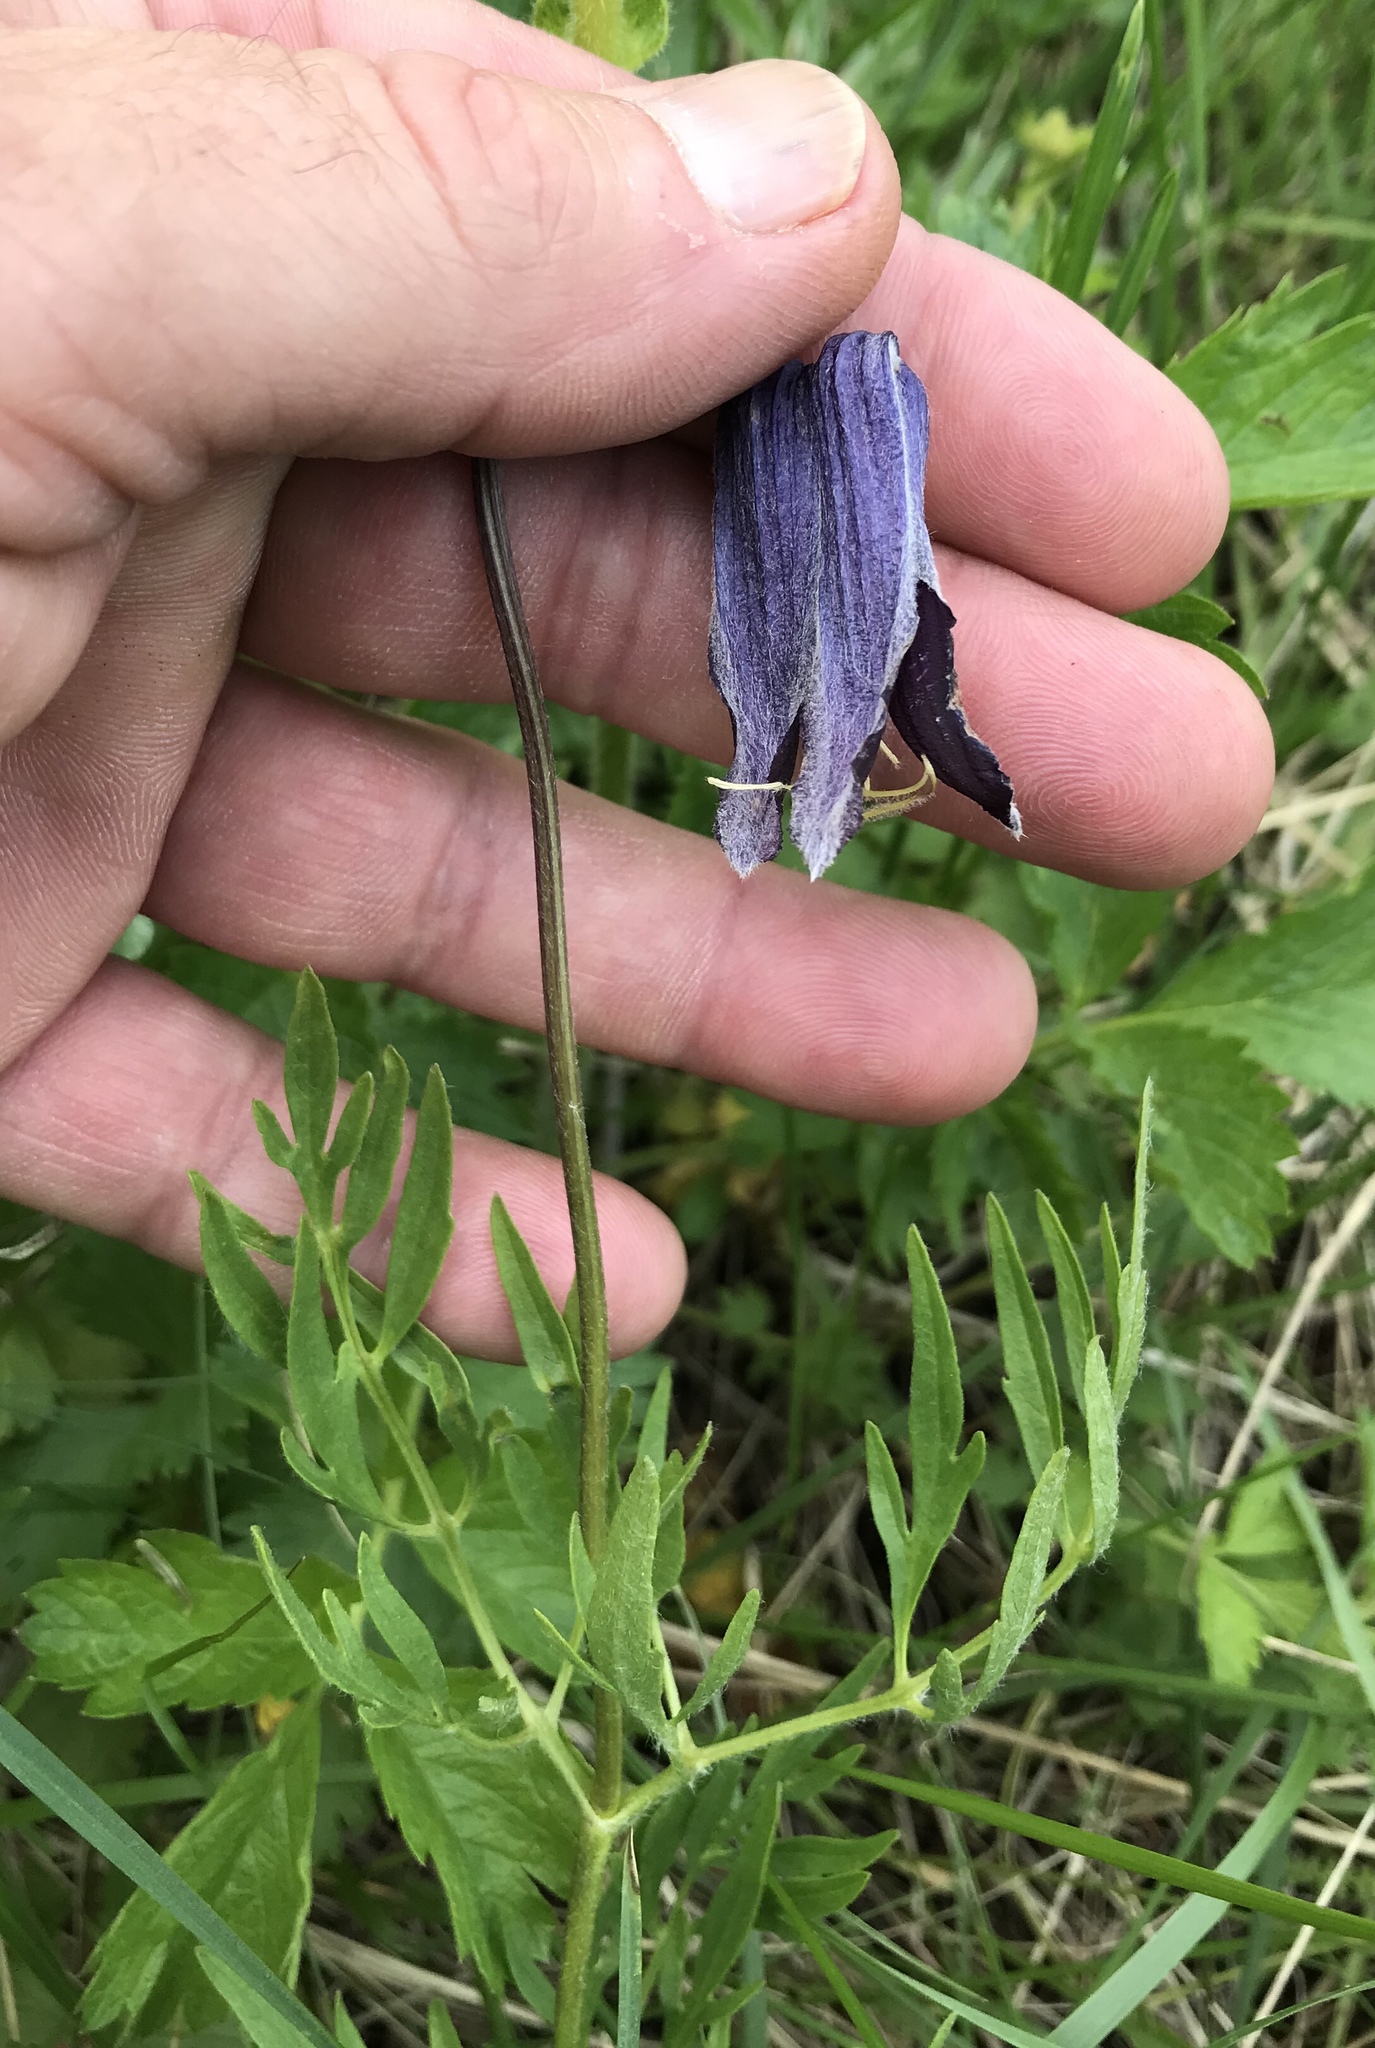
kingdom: Plantae
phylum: Tracheophyta
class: Magnoliopsida
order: Ranunculales
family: Ranunculaceae
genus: Clematis
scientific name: Clematis hirsutissima
